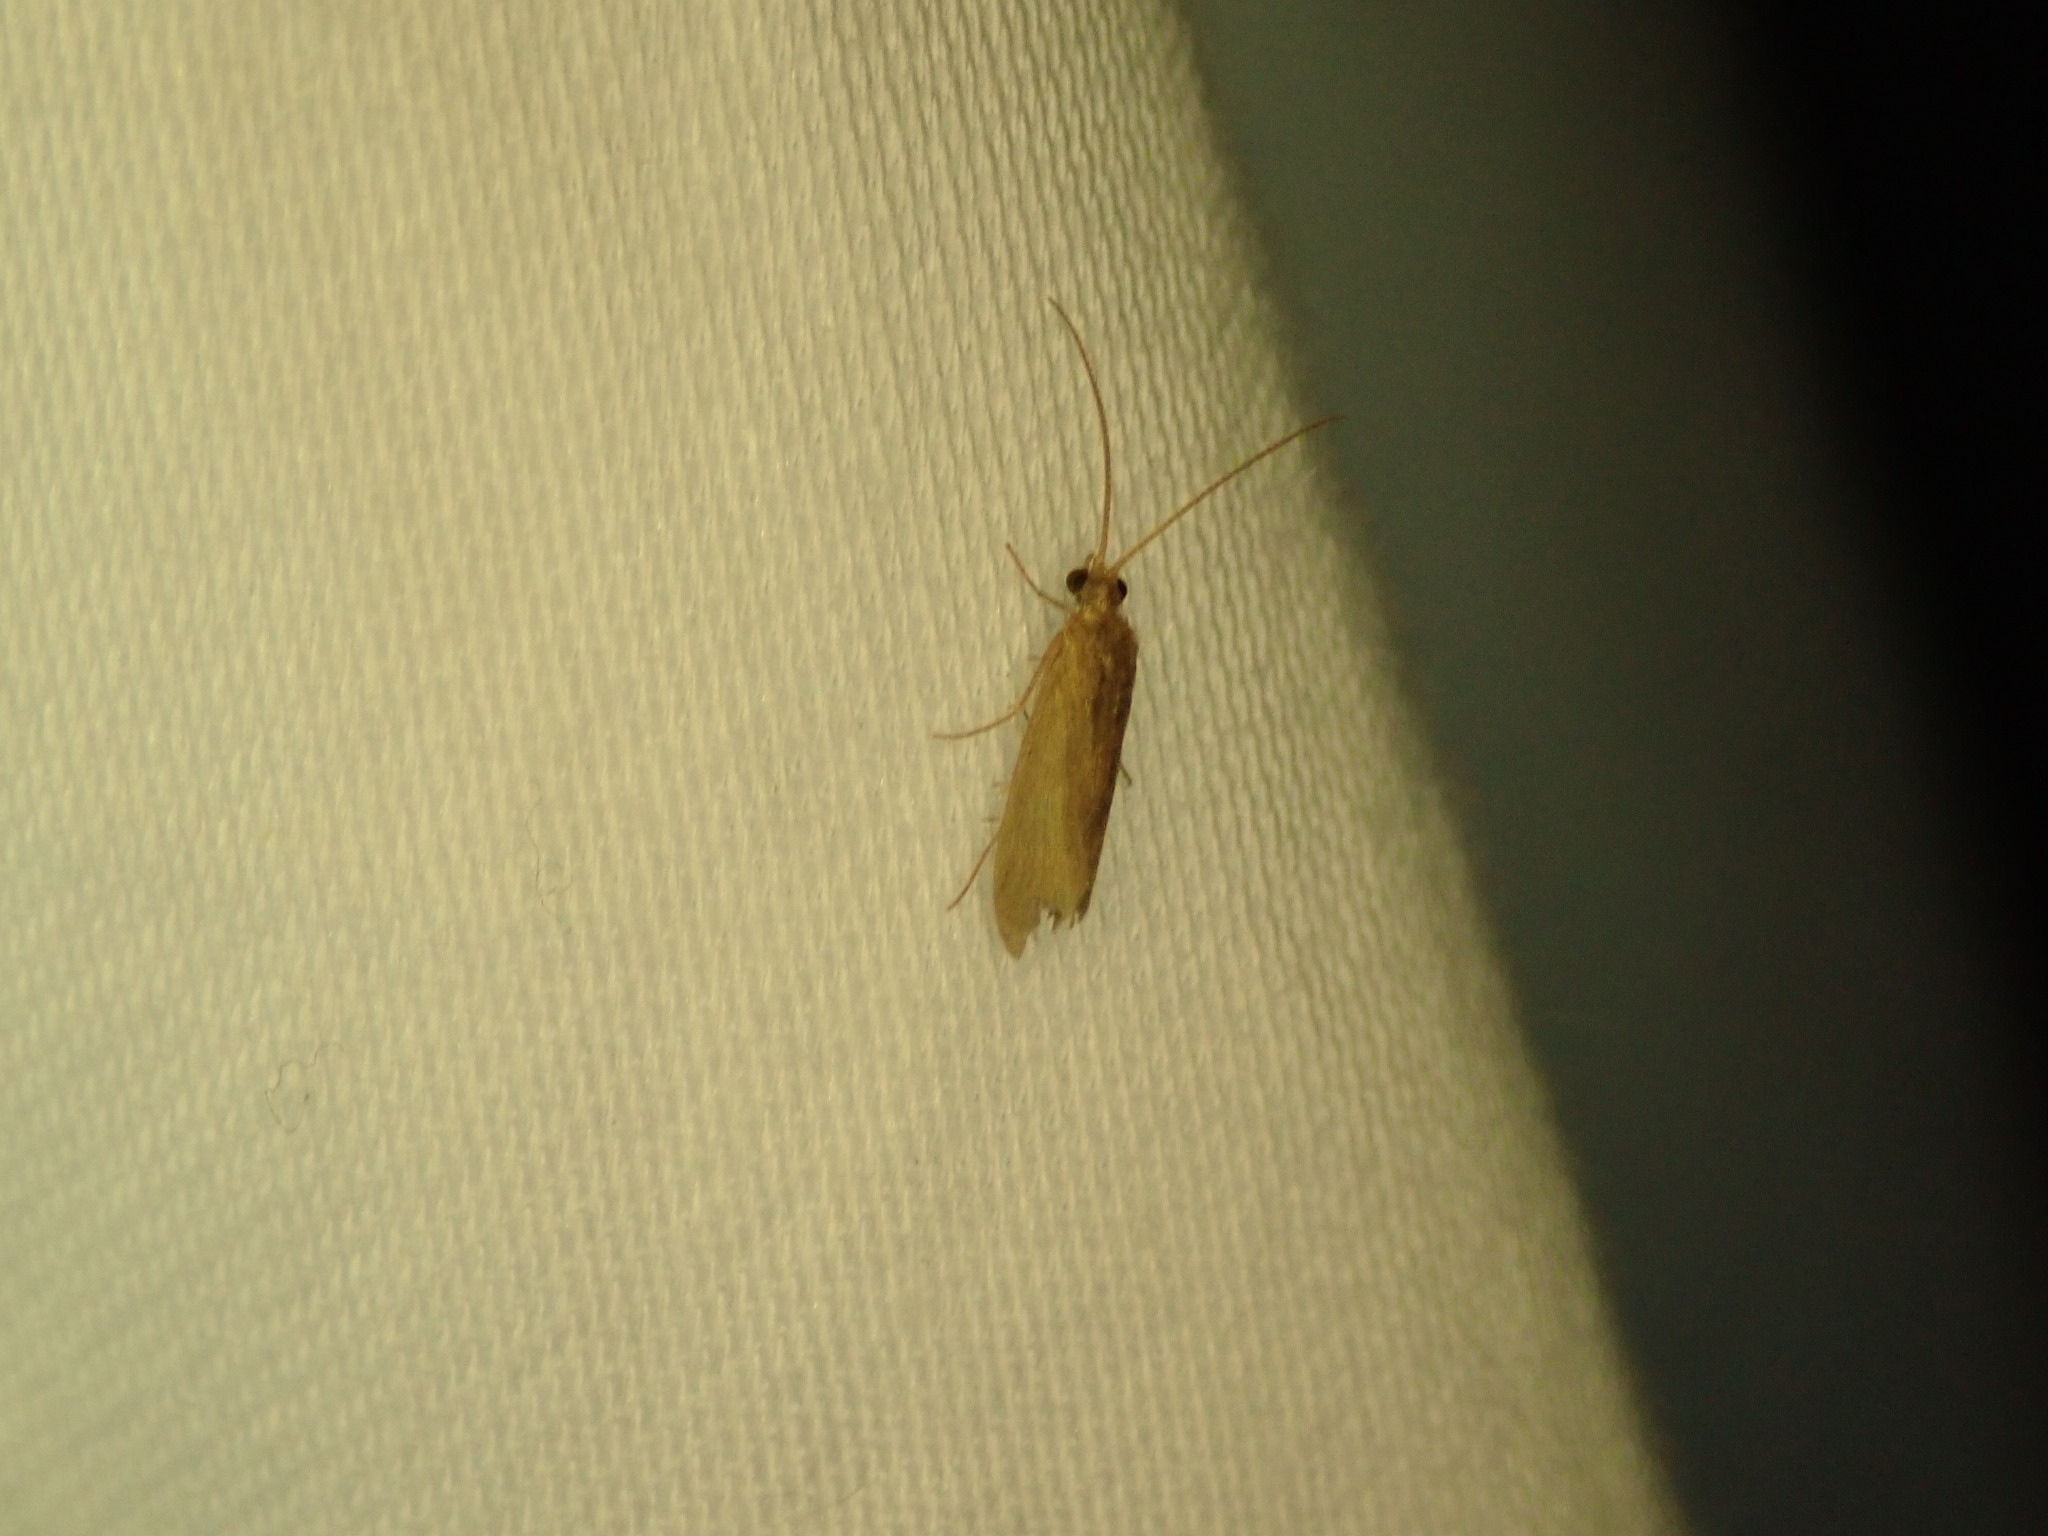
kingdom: Animalia
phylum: Arthropoda
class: Insecta
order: Trichoptera
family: Hydropsychidae
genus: Potamyia
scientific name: Potamyia flava
